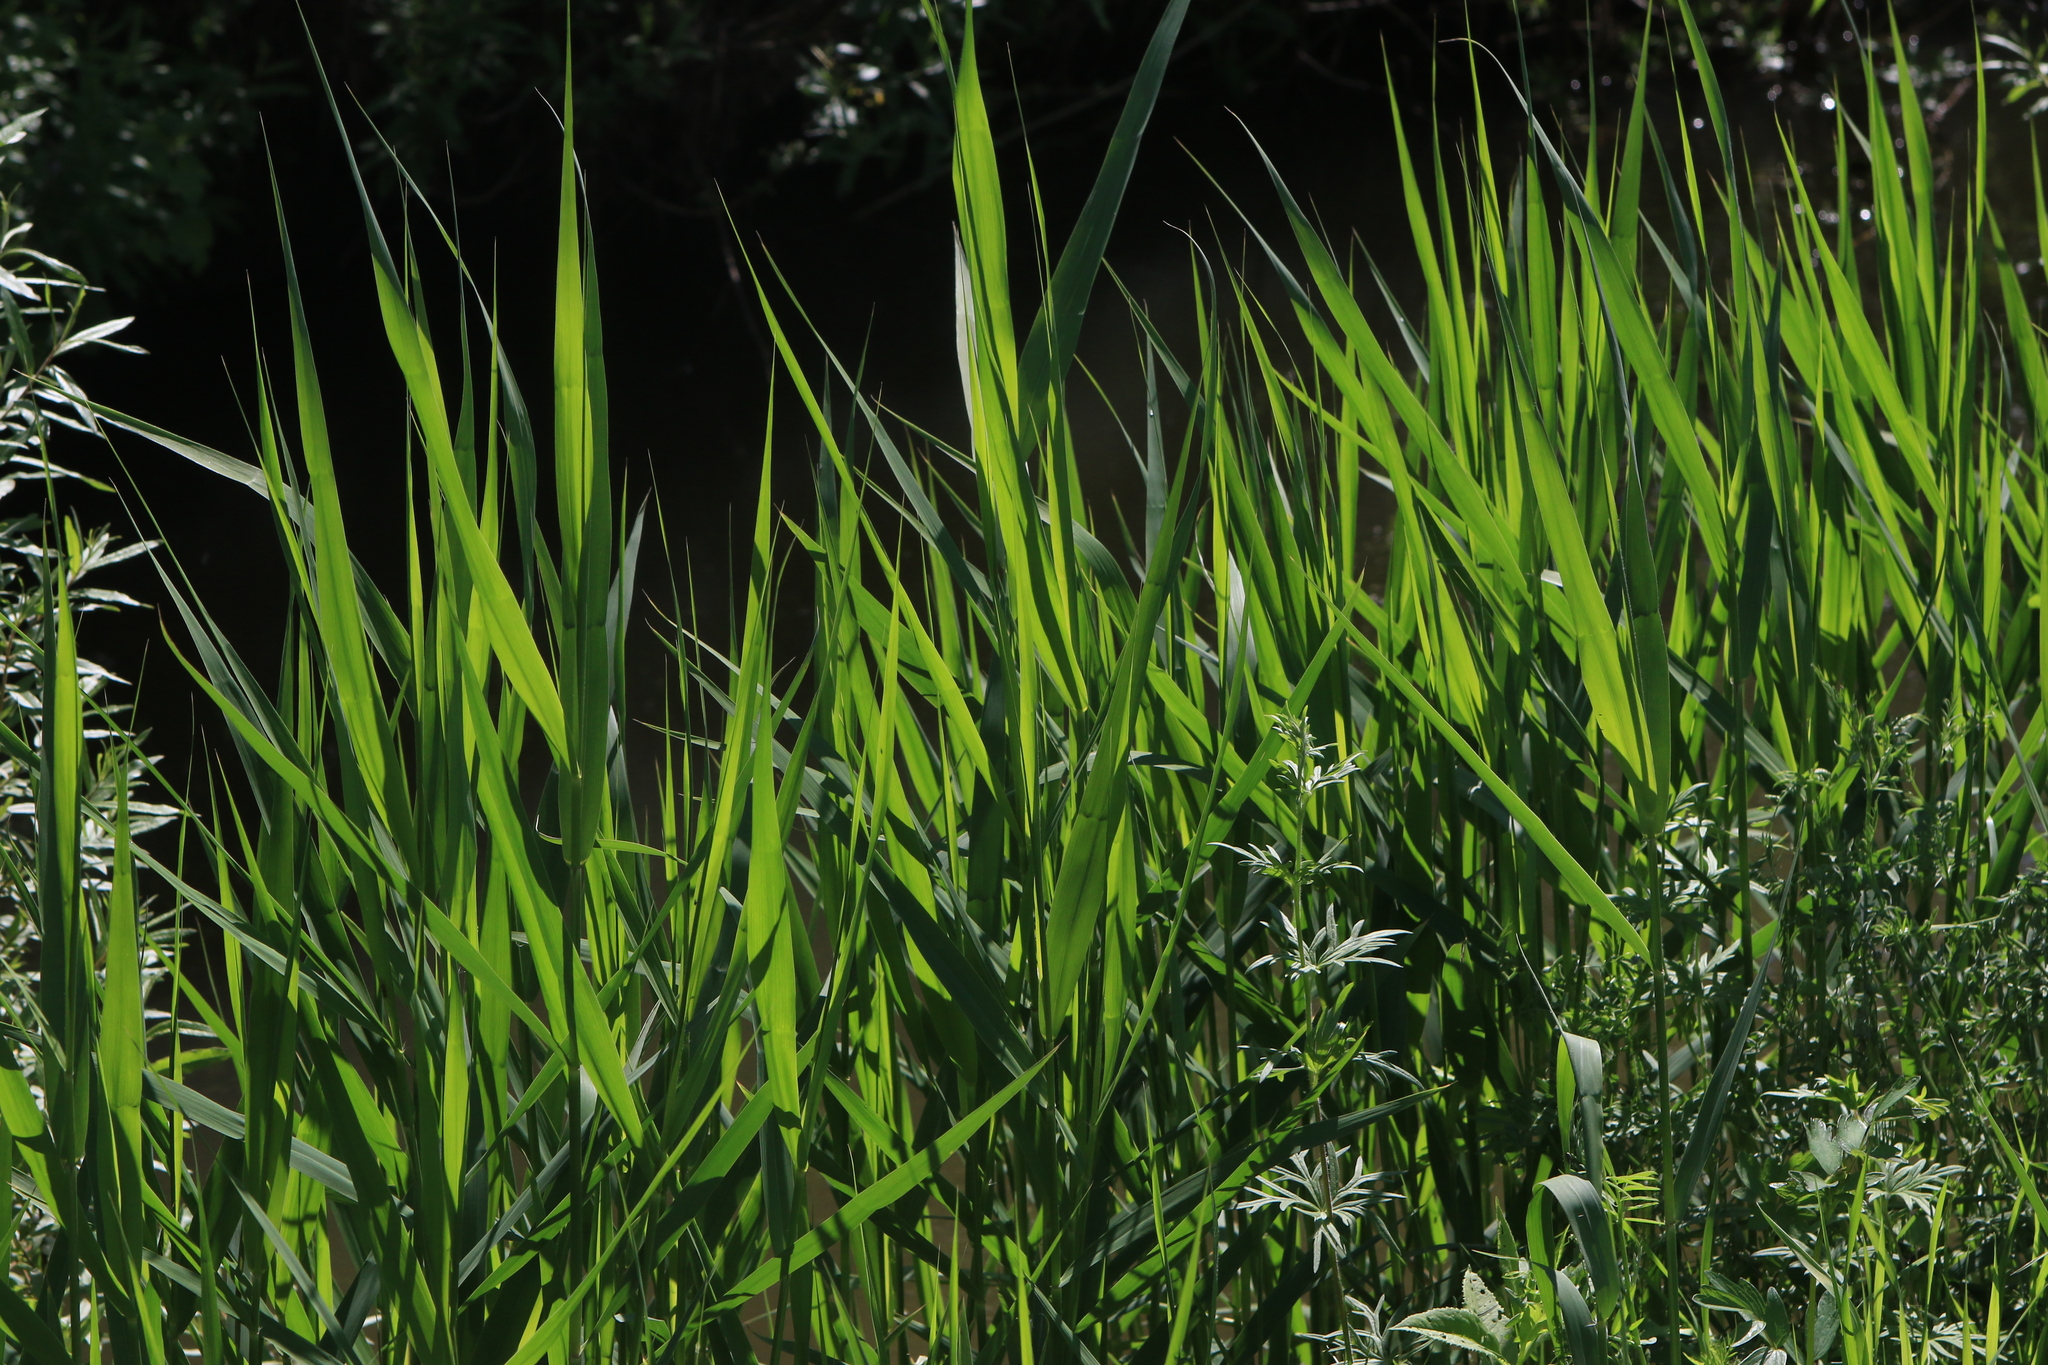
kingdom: Plantae
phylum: Tracheophyta
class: Liliopsida
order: Poales
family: Poaceae
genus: Phragmites
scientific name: Phragmites australis
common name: Common reed
